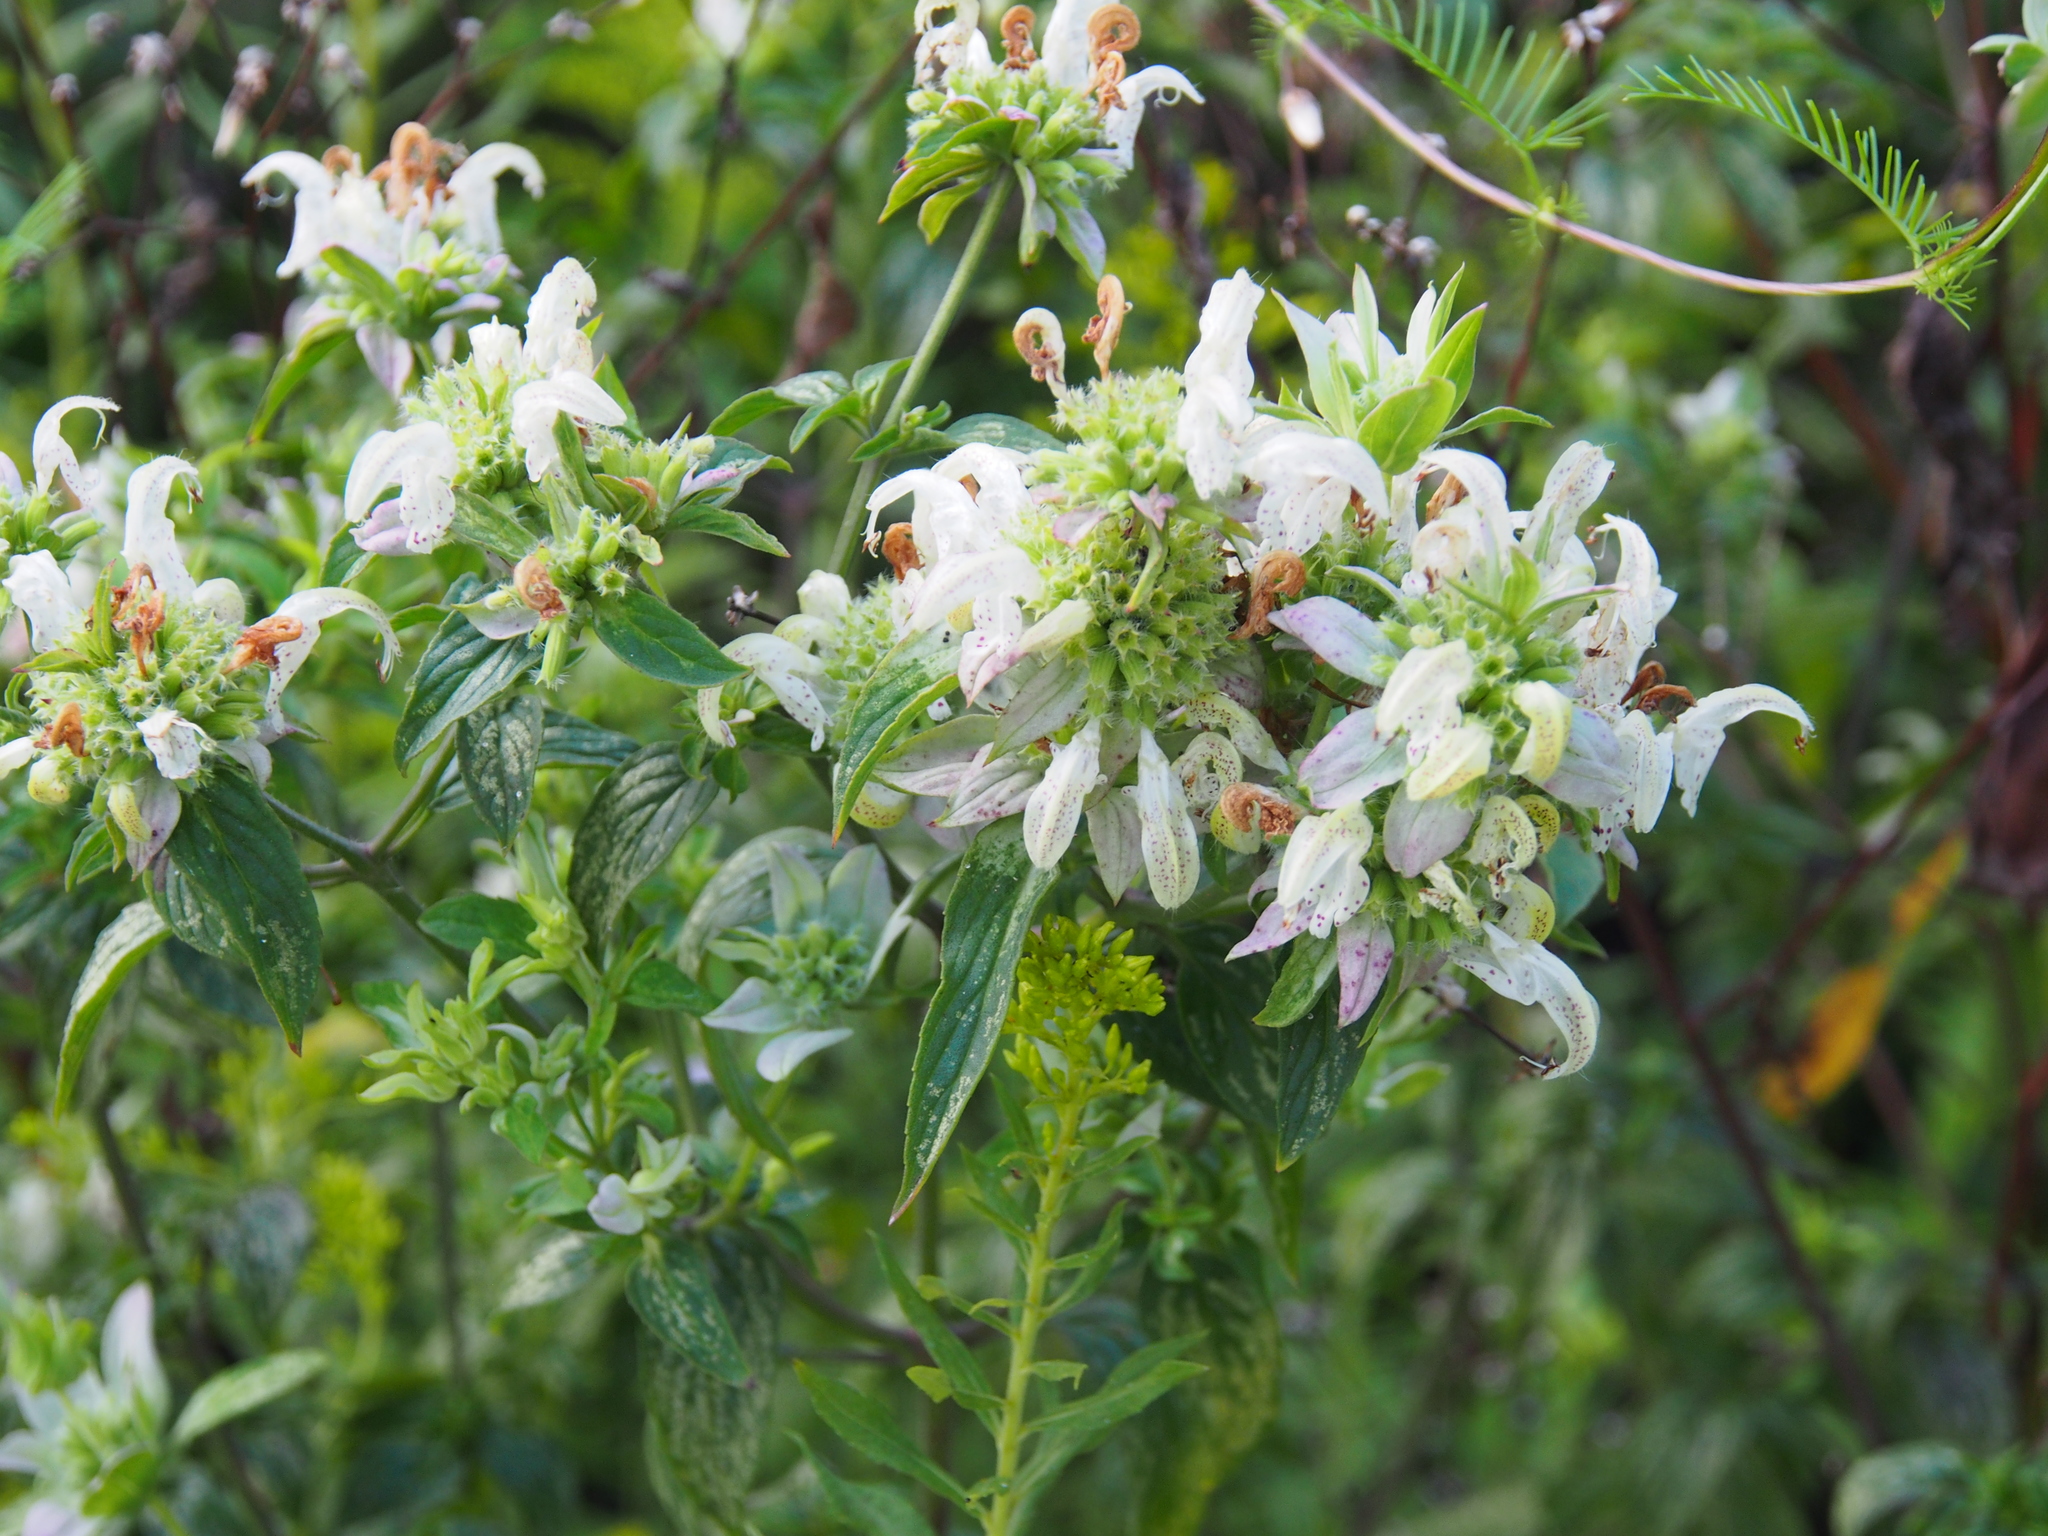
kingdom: Plantae
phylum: Tracheophyta
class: Magnoliopsida
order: Lamiales
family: Lamiaceae
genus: Monarda
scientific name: Monarda punctata
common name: Dotted monarda
